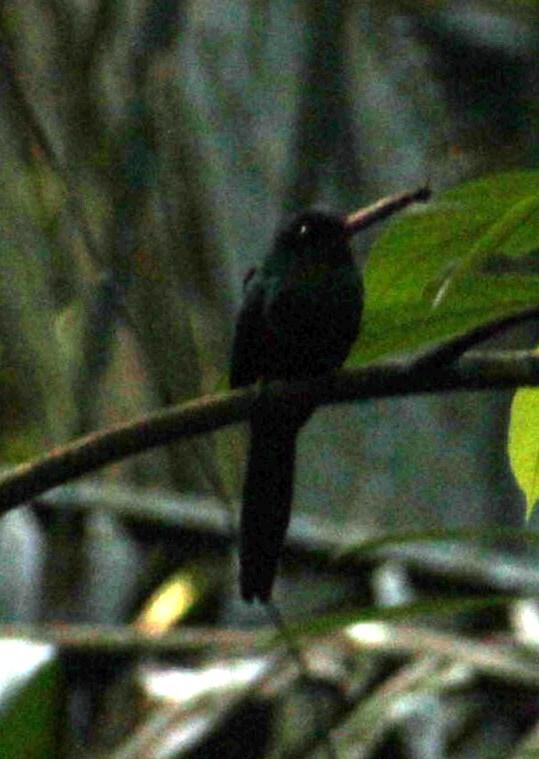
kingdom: Animalia
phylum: Chordata
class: Aves
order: Piciformes
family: Galbulidae
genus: Galbula
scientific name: Galbula cyanescens
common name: Bluish-fronted jacamar
